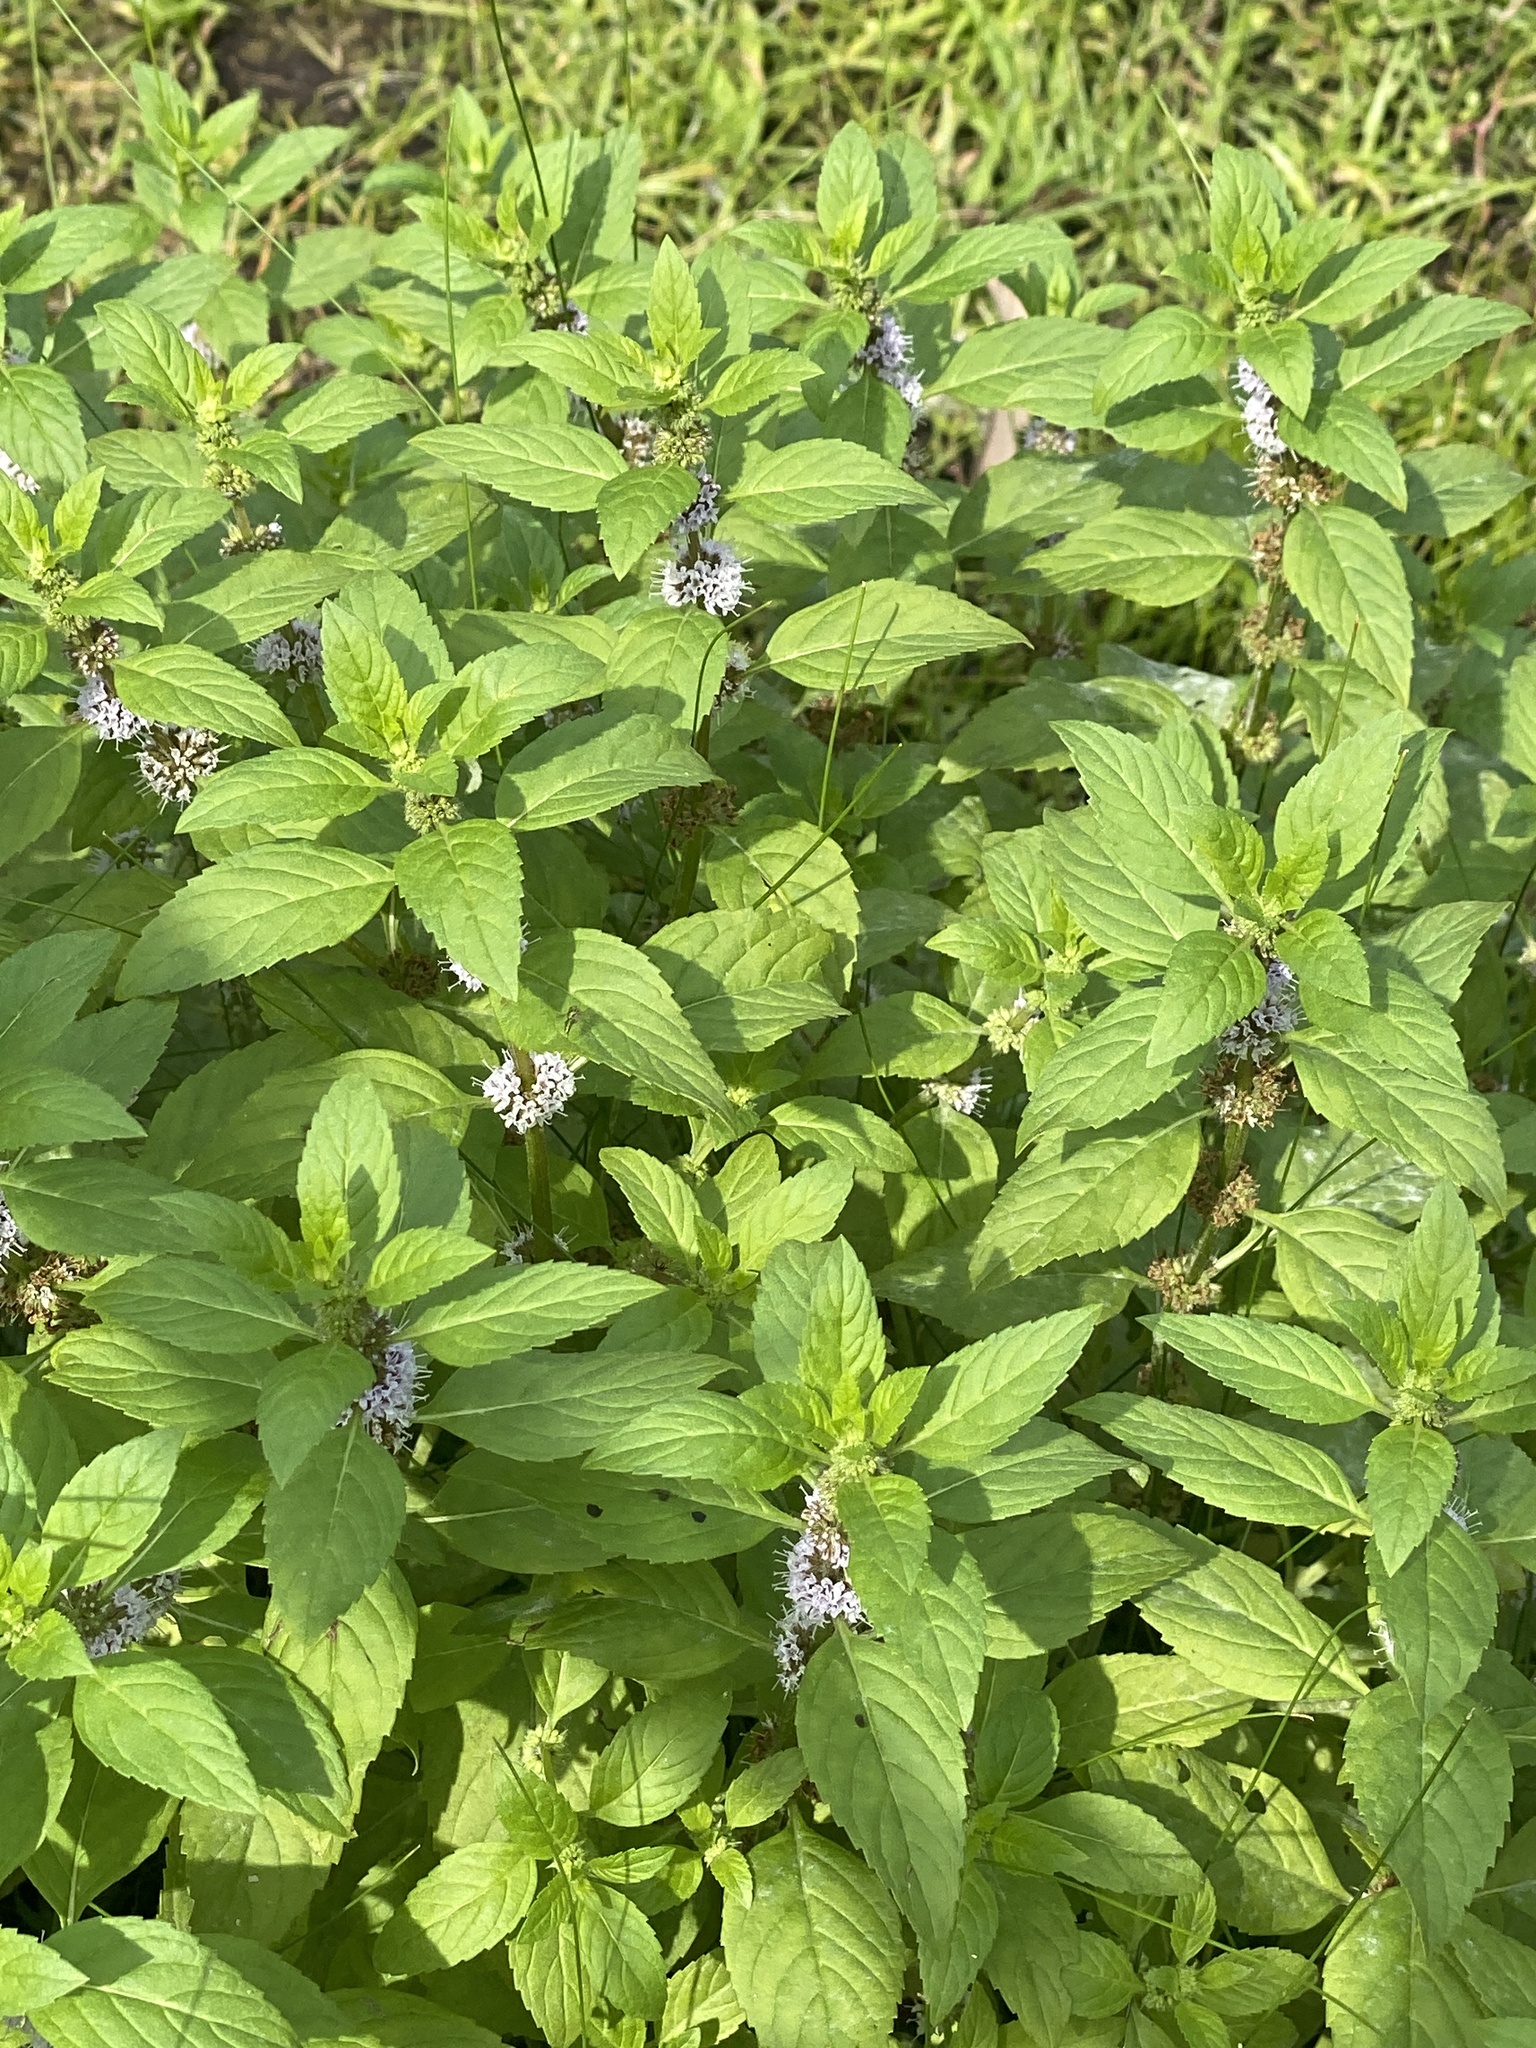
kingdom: Plantae
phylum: Tracheophyta
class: Magnoliopsida
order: Lamiales
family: Lamiaceae
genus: Mentha
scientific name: Mentha canadensis
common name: American corn mint
